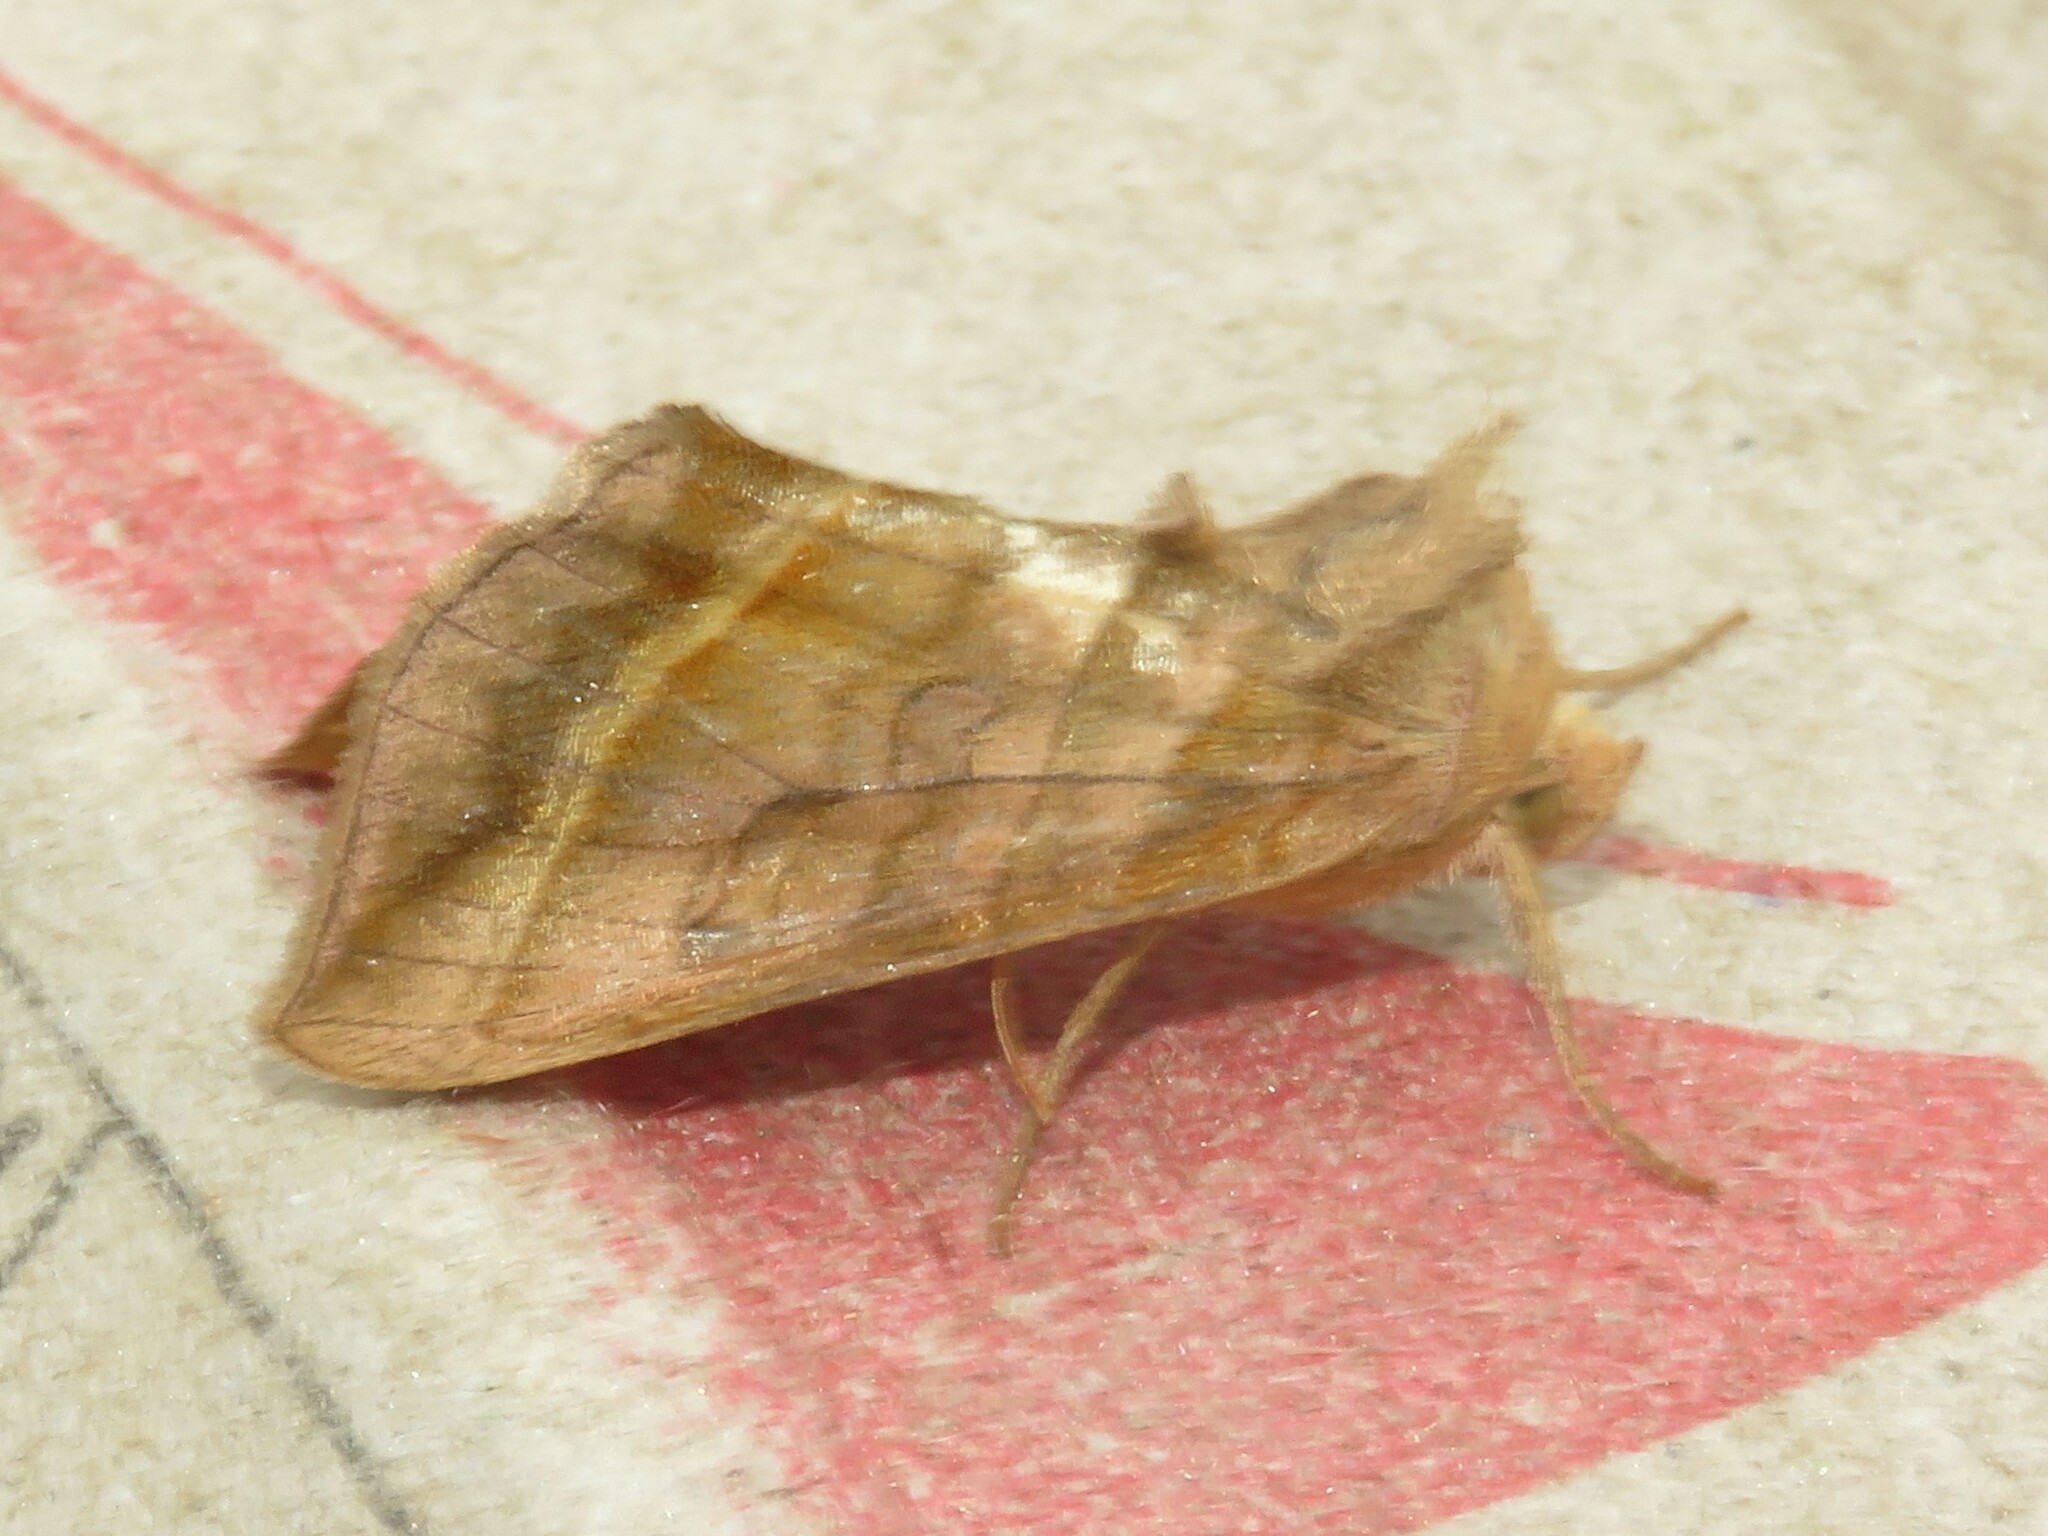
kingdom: Animalia
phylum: Arthropoda
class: Insecta
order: Lepidoptera
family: Noctuidae
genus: Diachrysia
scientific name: Diachrysia aereoides
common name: Dark-spotted looper moth
